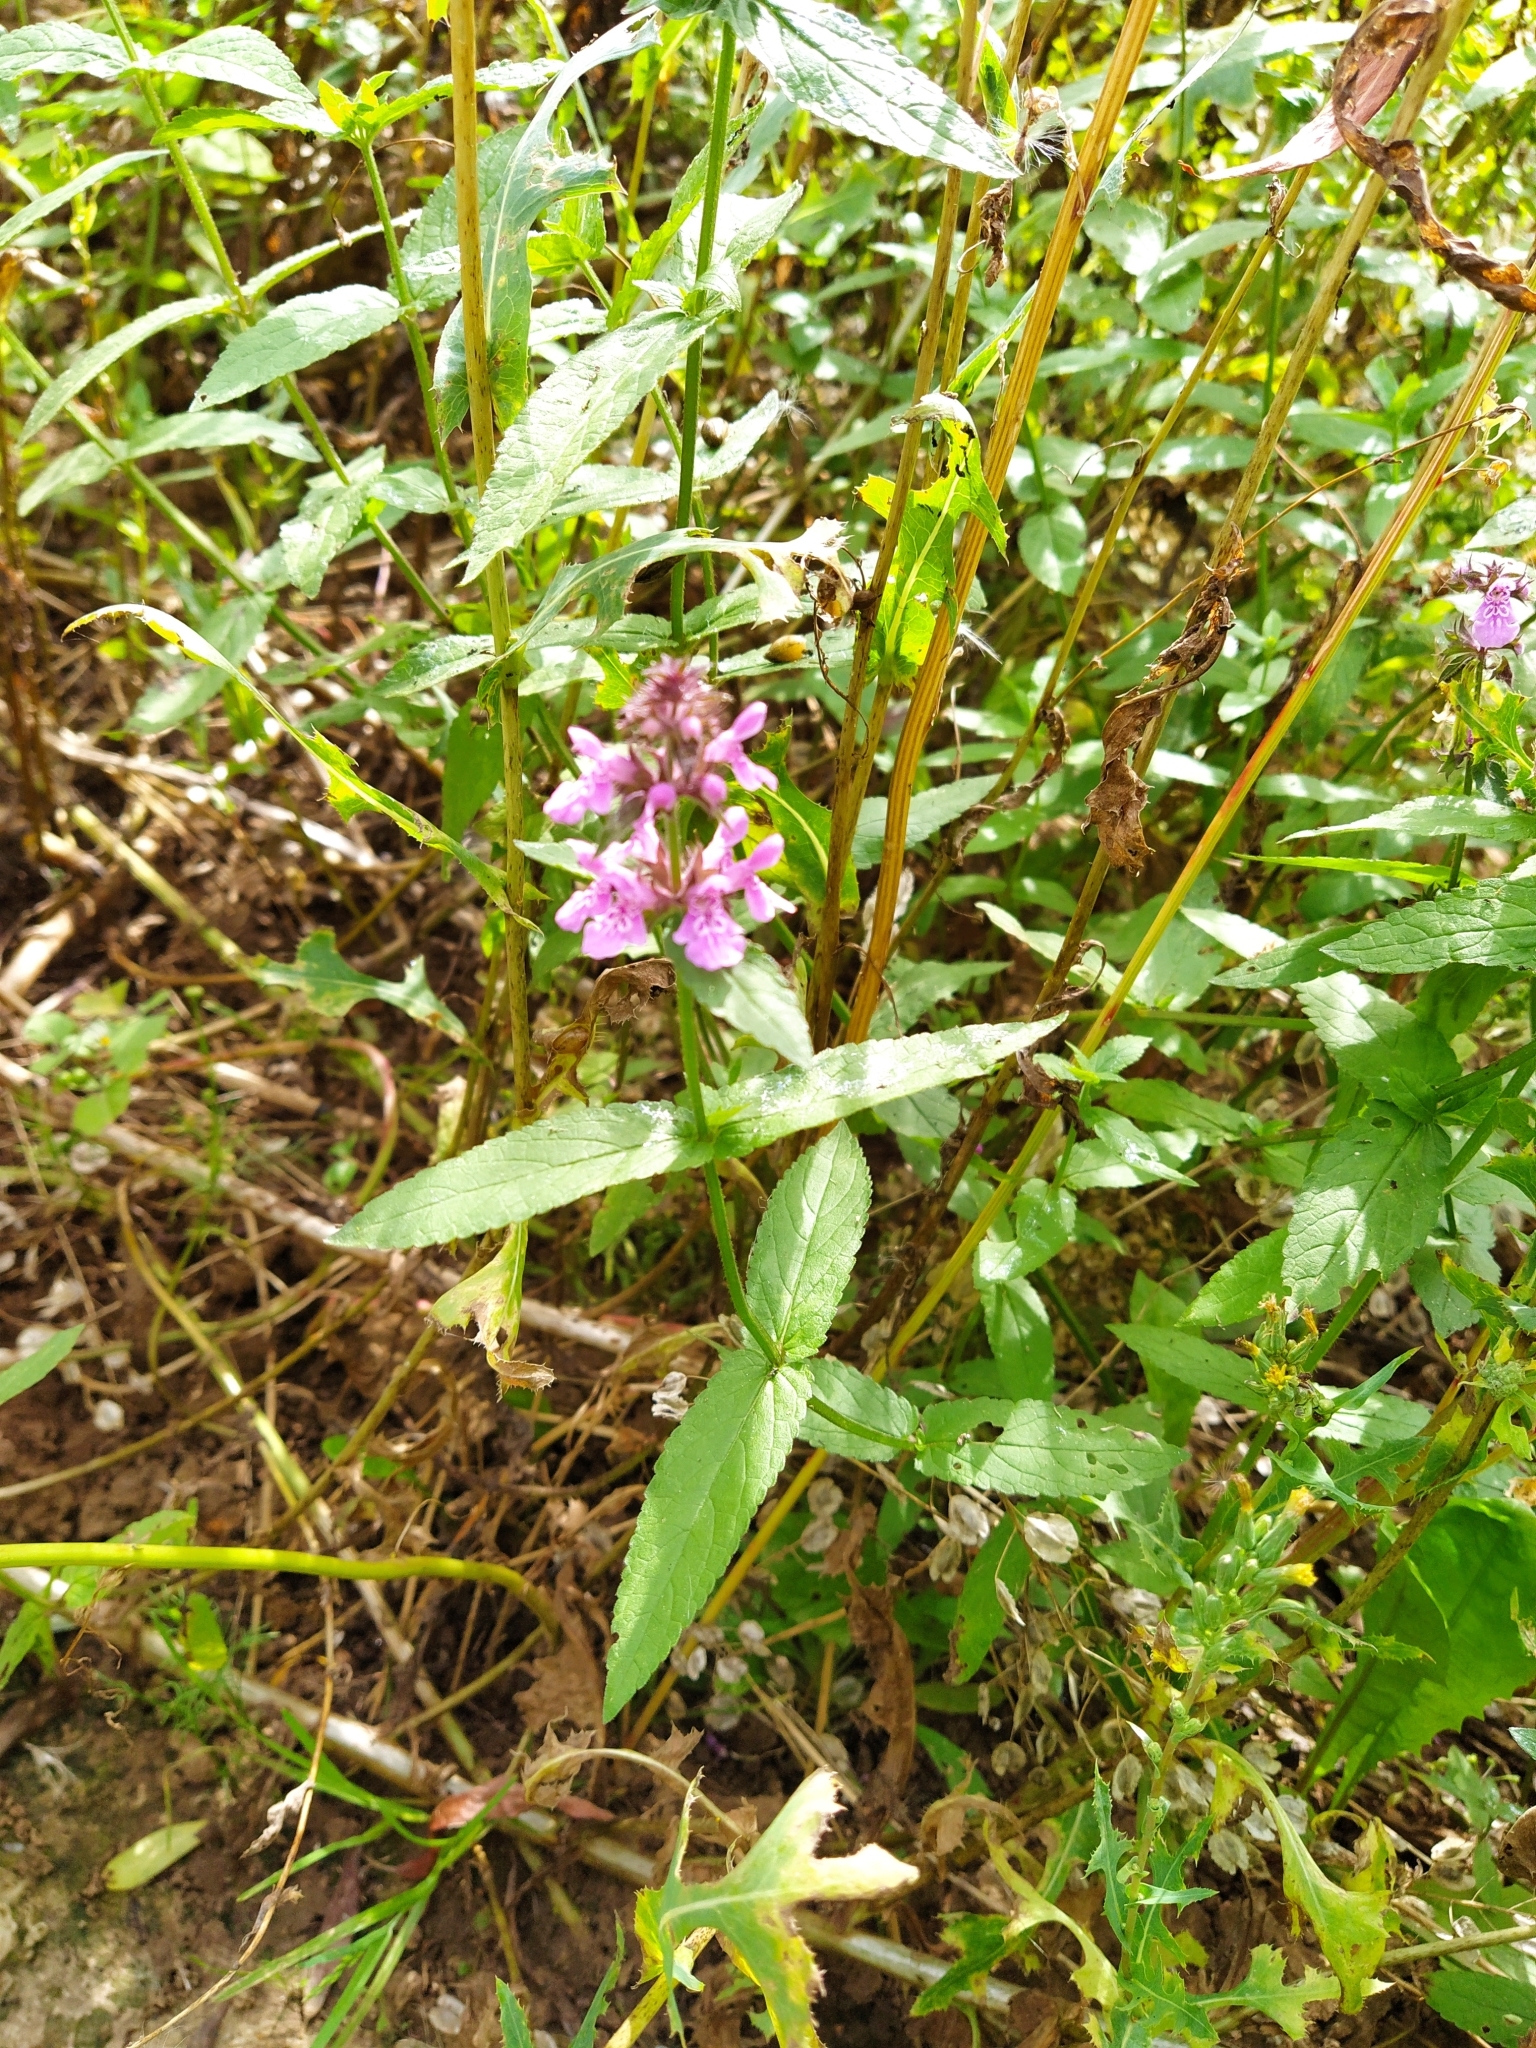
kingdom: Plantae
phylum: Tracheophyta
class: Magnoliopsida
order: Lamiales
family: Lamiaceae
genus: Stachys
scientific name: Stachys palustris
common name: Marsh woundwort
